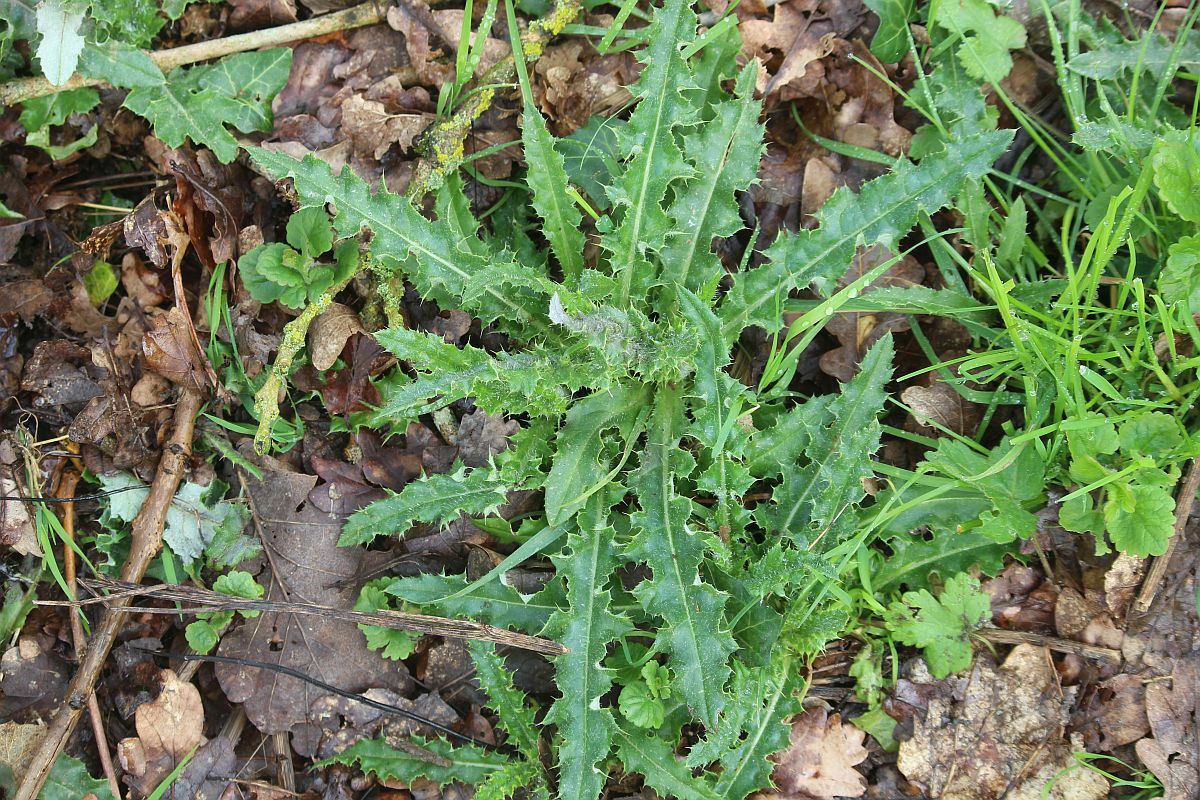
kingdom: Plantae
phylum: Tracheophyta
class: Magnoliopsida
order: Asterales
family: Asteraceae
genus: Cirsium
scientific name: Cirsium arvense
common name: Creeping thistle
